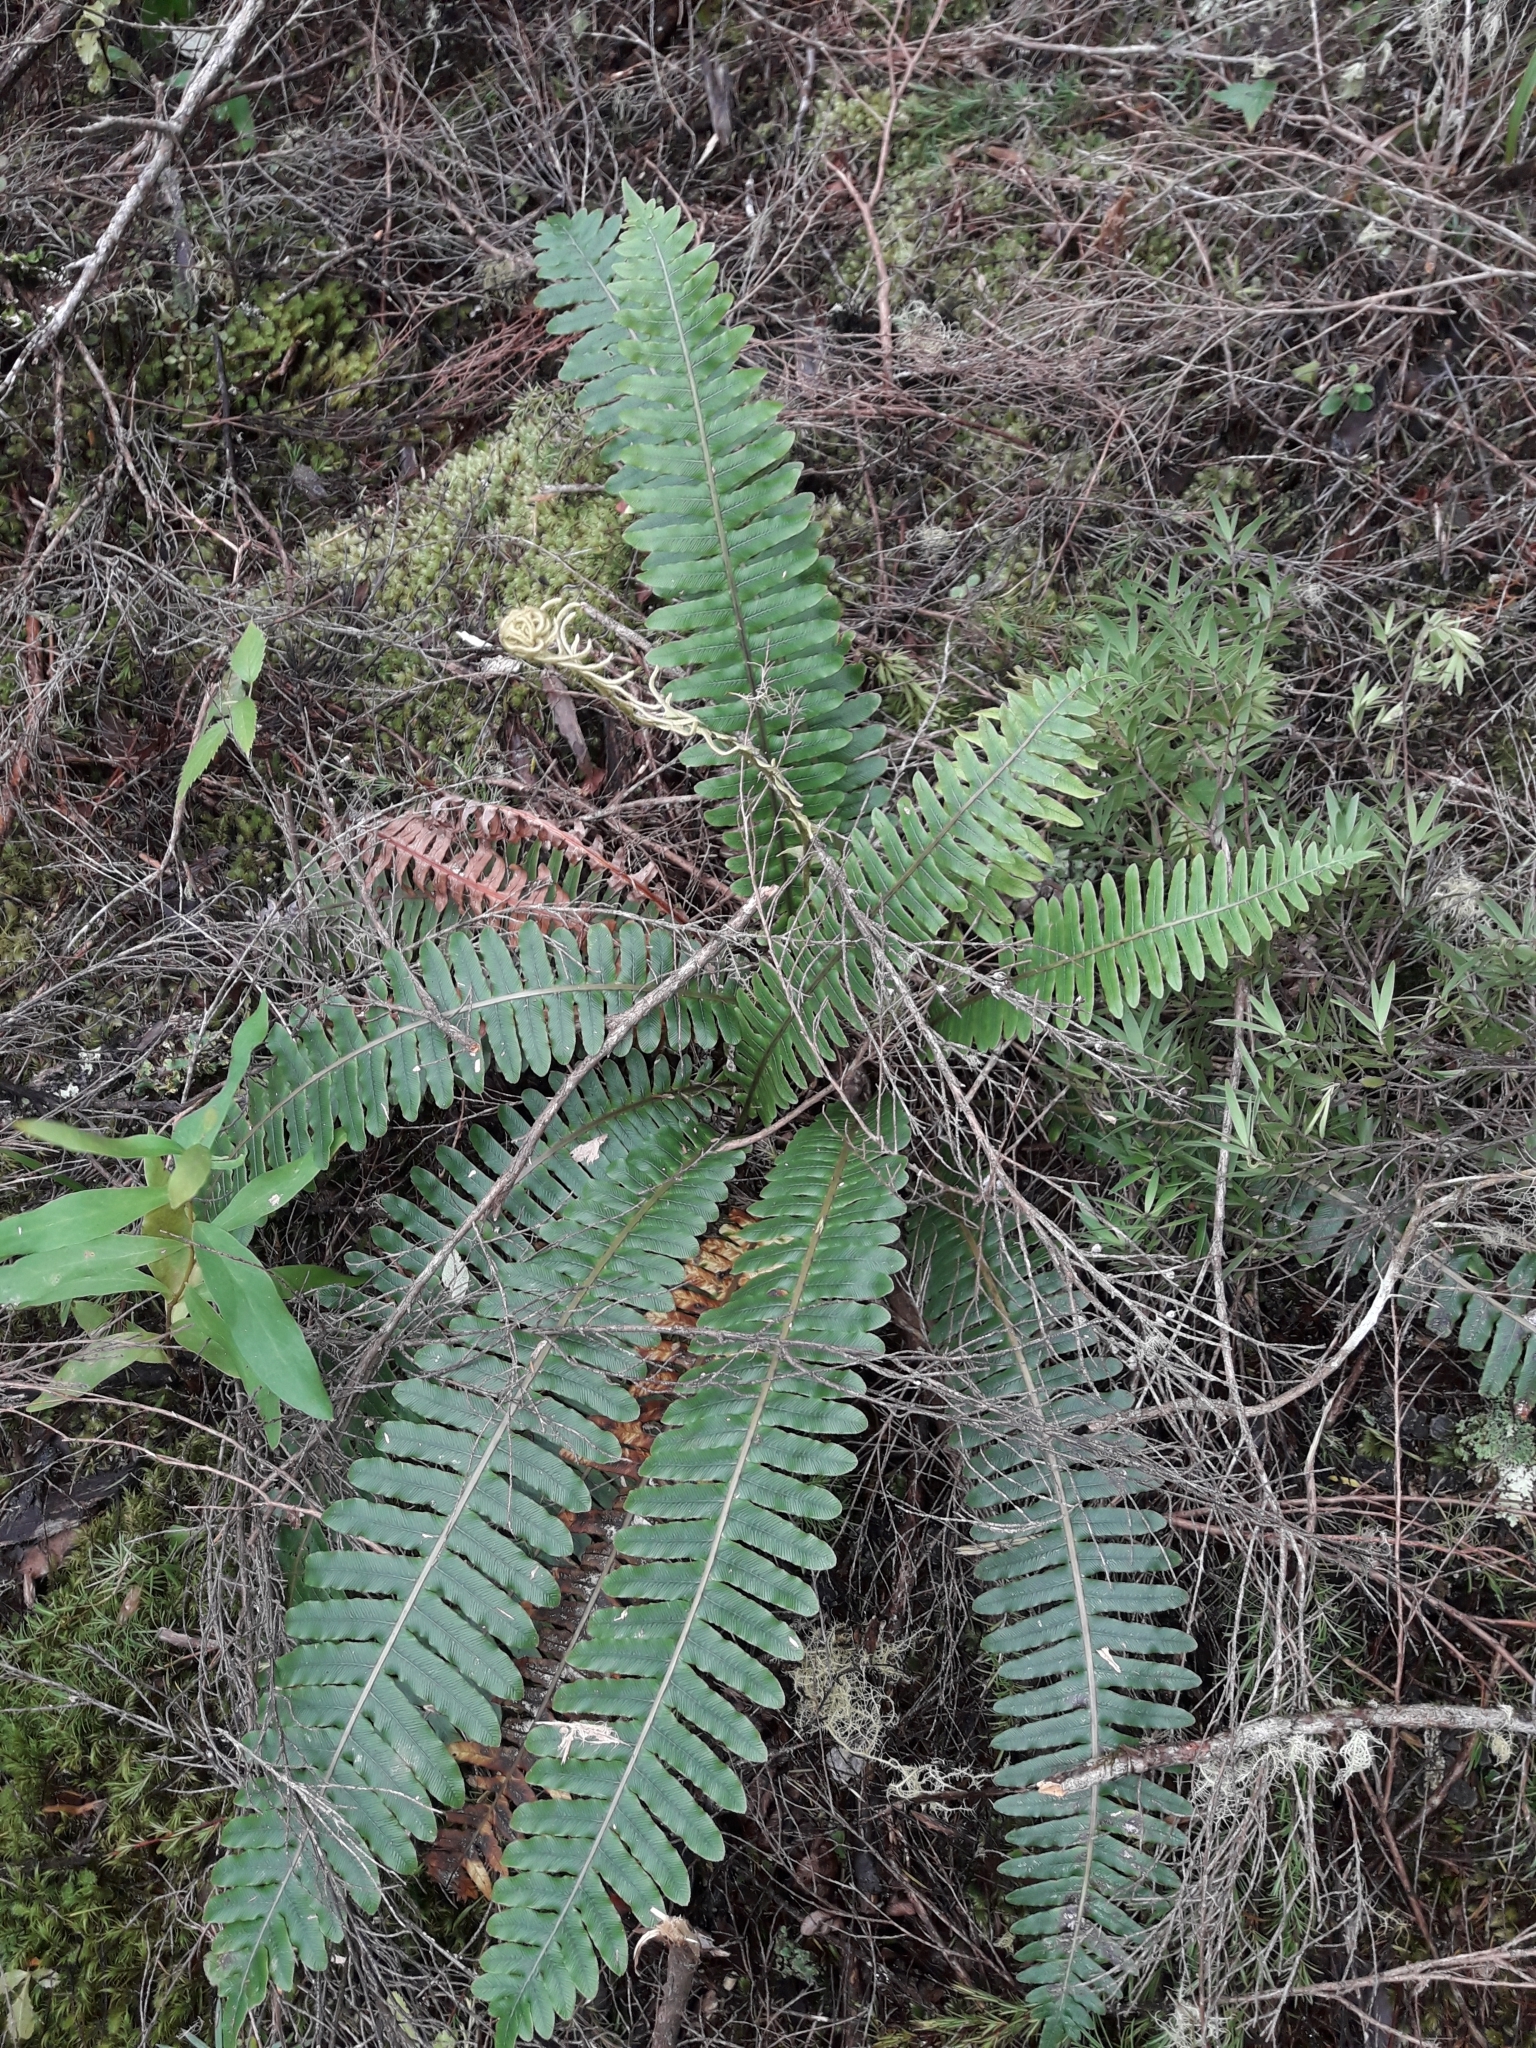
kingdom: Plantae
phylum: Tracheophyta
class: Polypodiopsida
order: Polypodiales
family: Blechnaceae
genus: Lomaria
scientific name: Lomaria discolor
